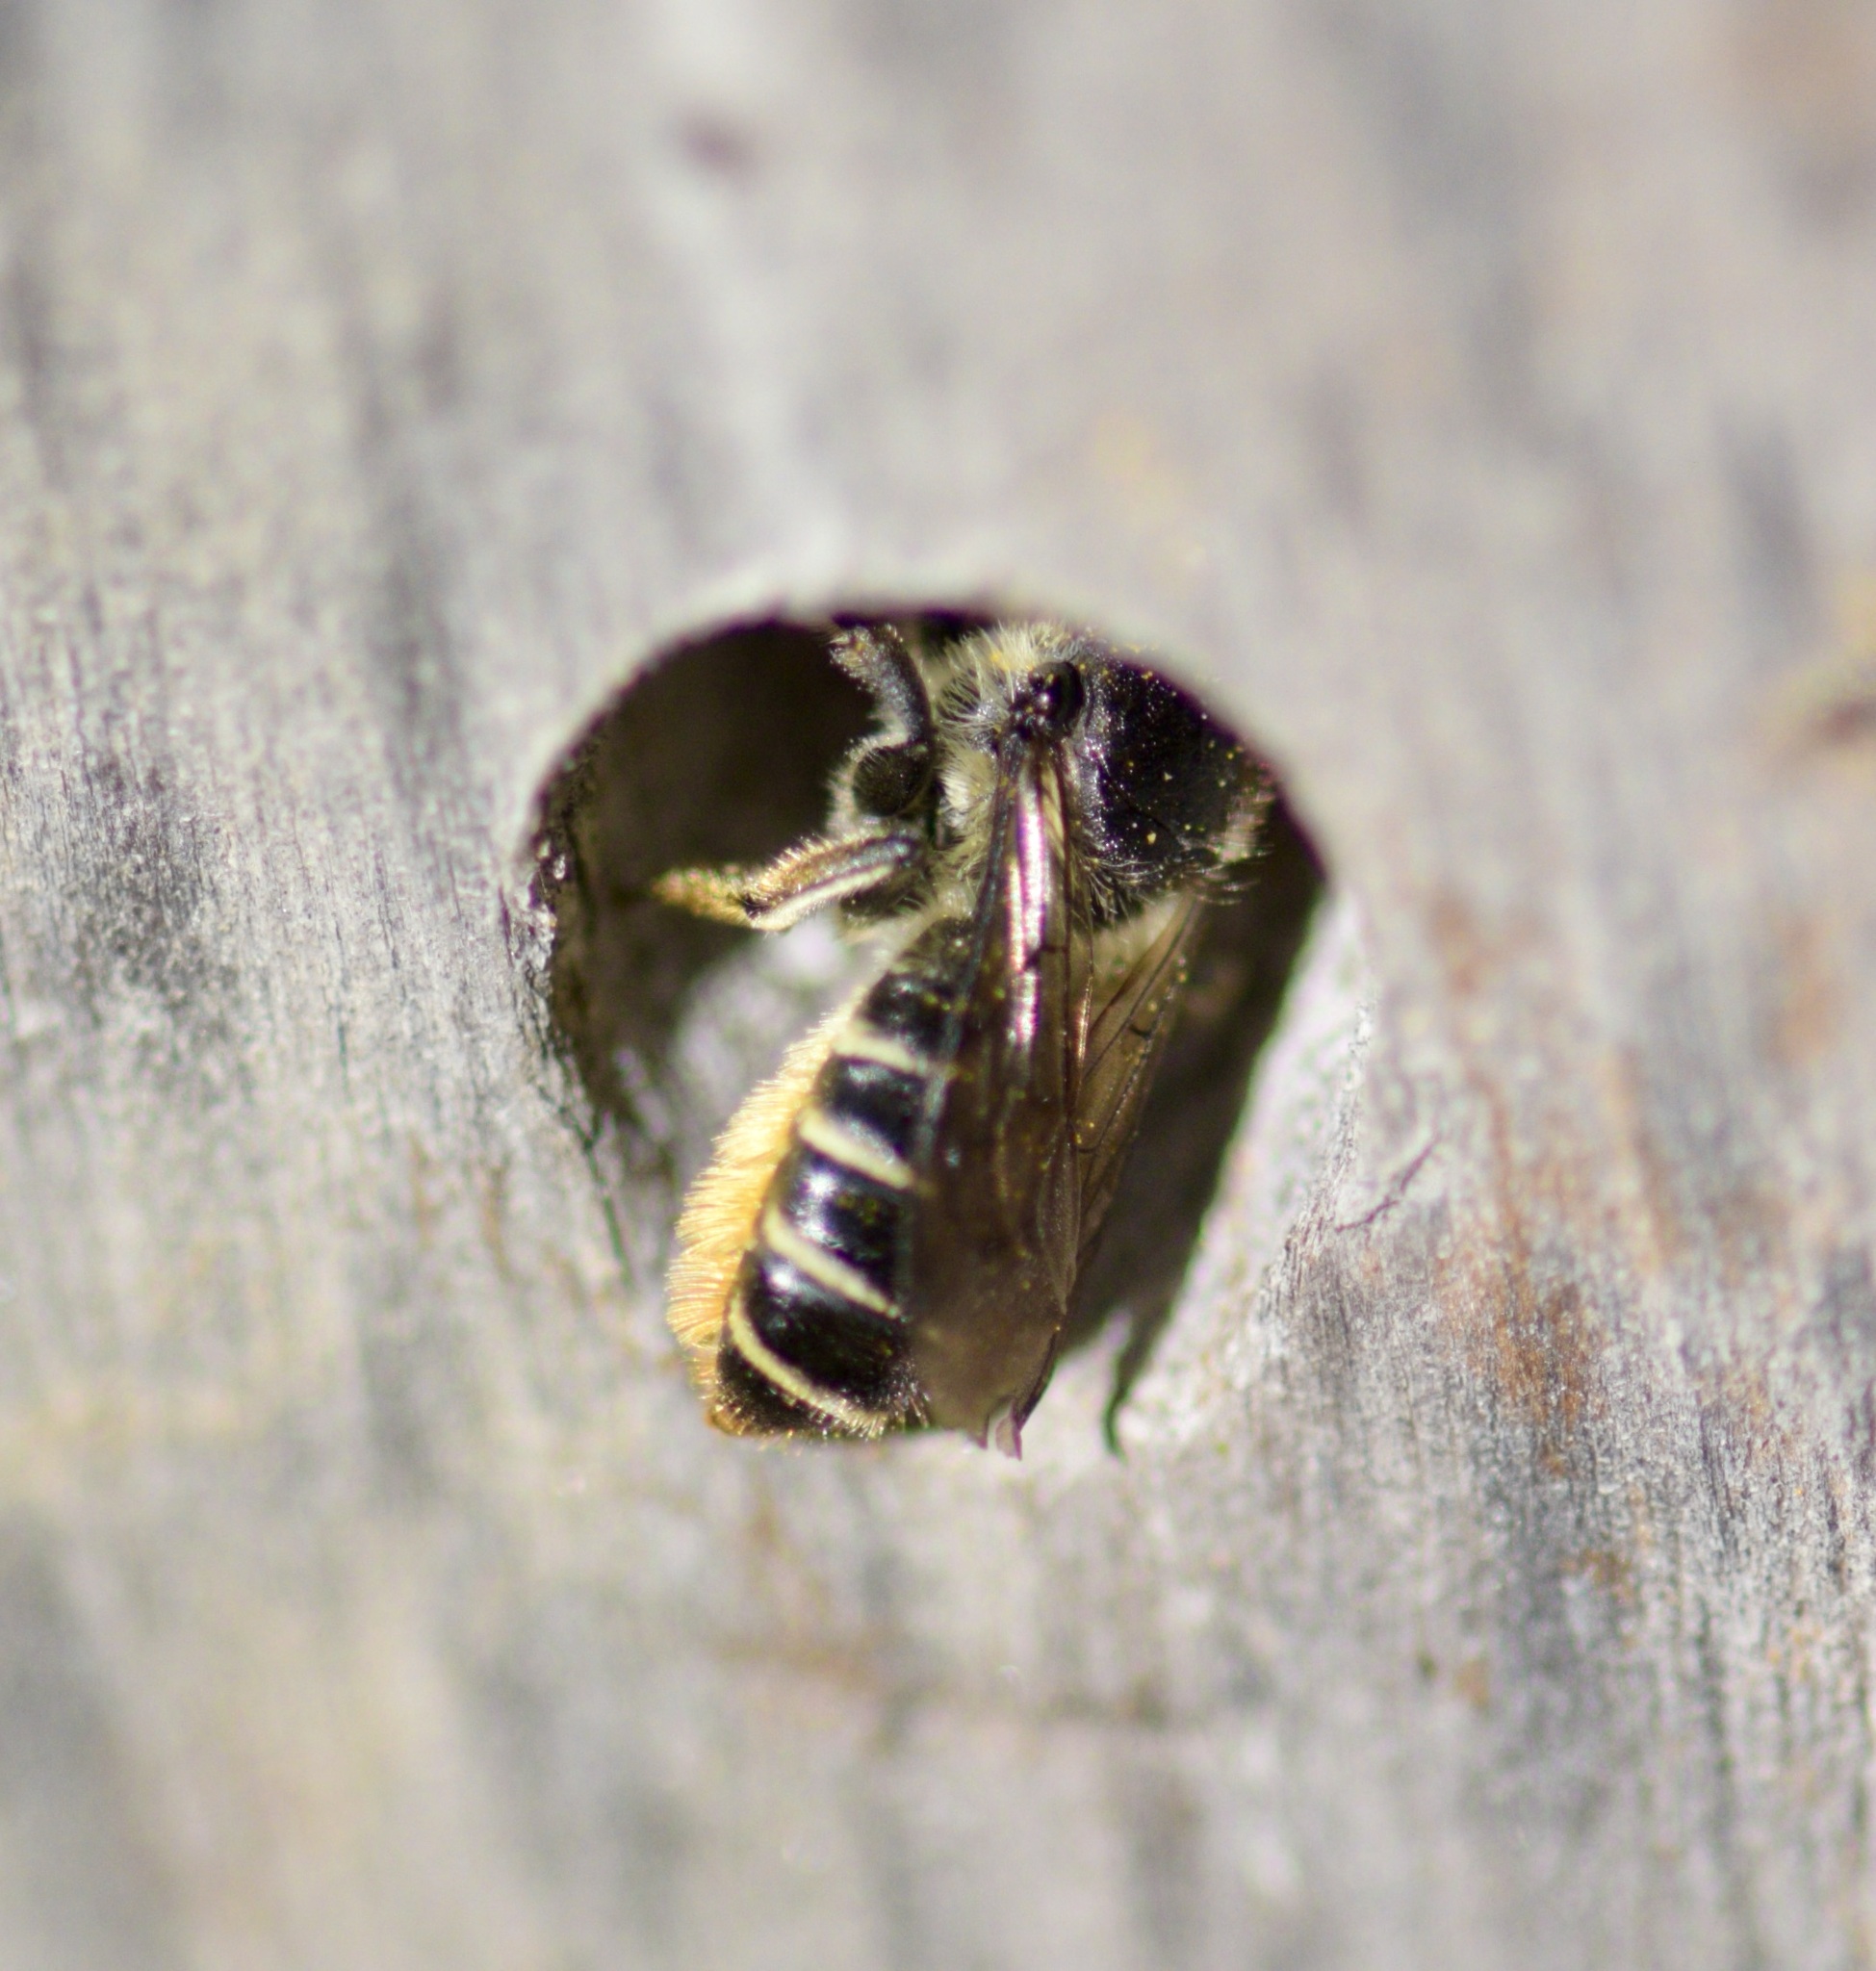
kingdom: Animalia
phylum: Arthropoda
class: Insecta
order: Hymenoptera
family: Megachilidae
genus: Megachile
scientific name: Megachile relativa
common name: Golden-tailed leafcutter
